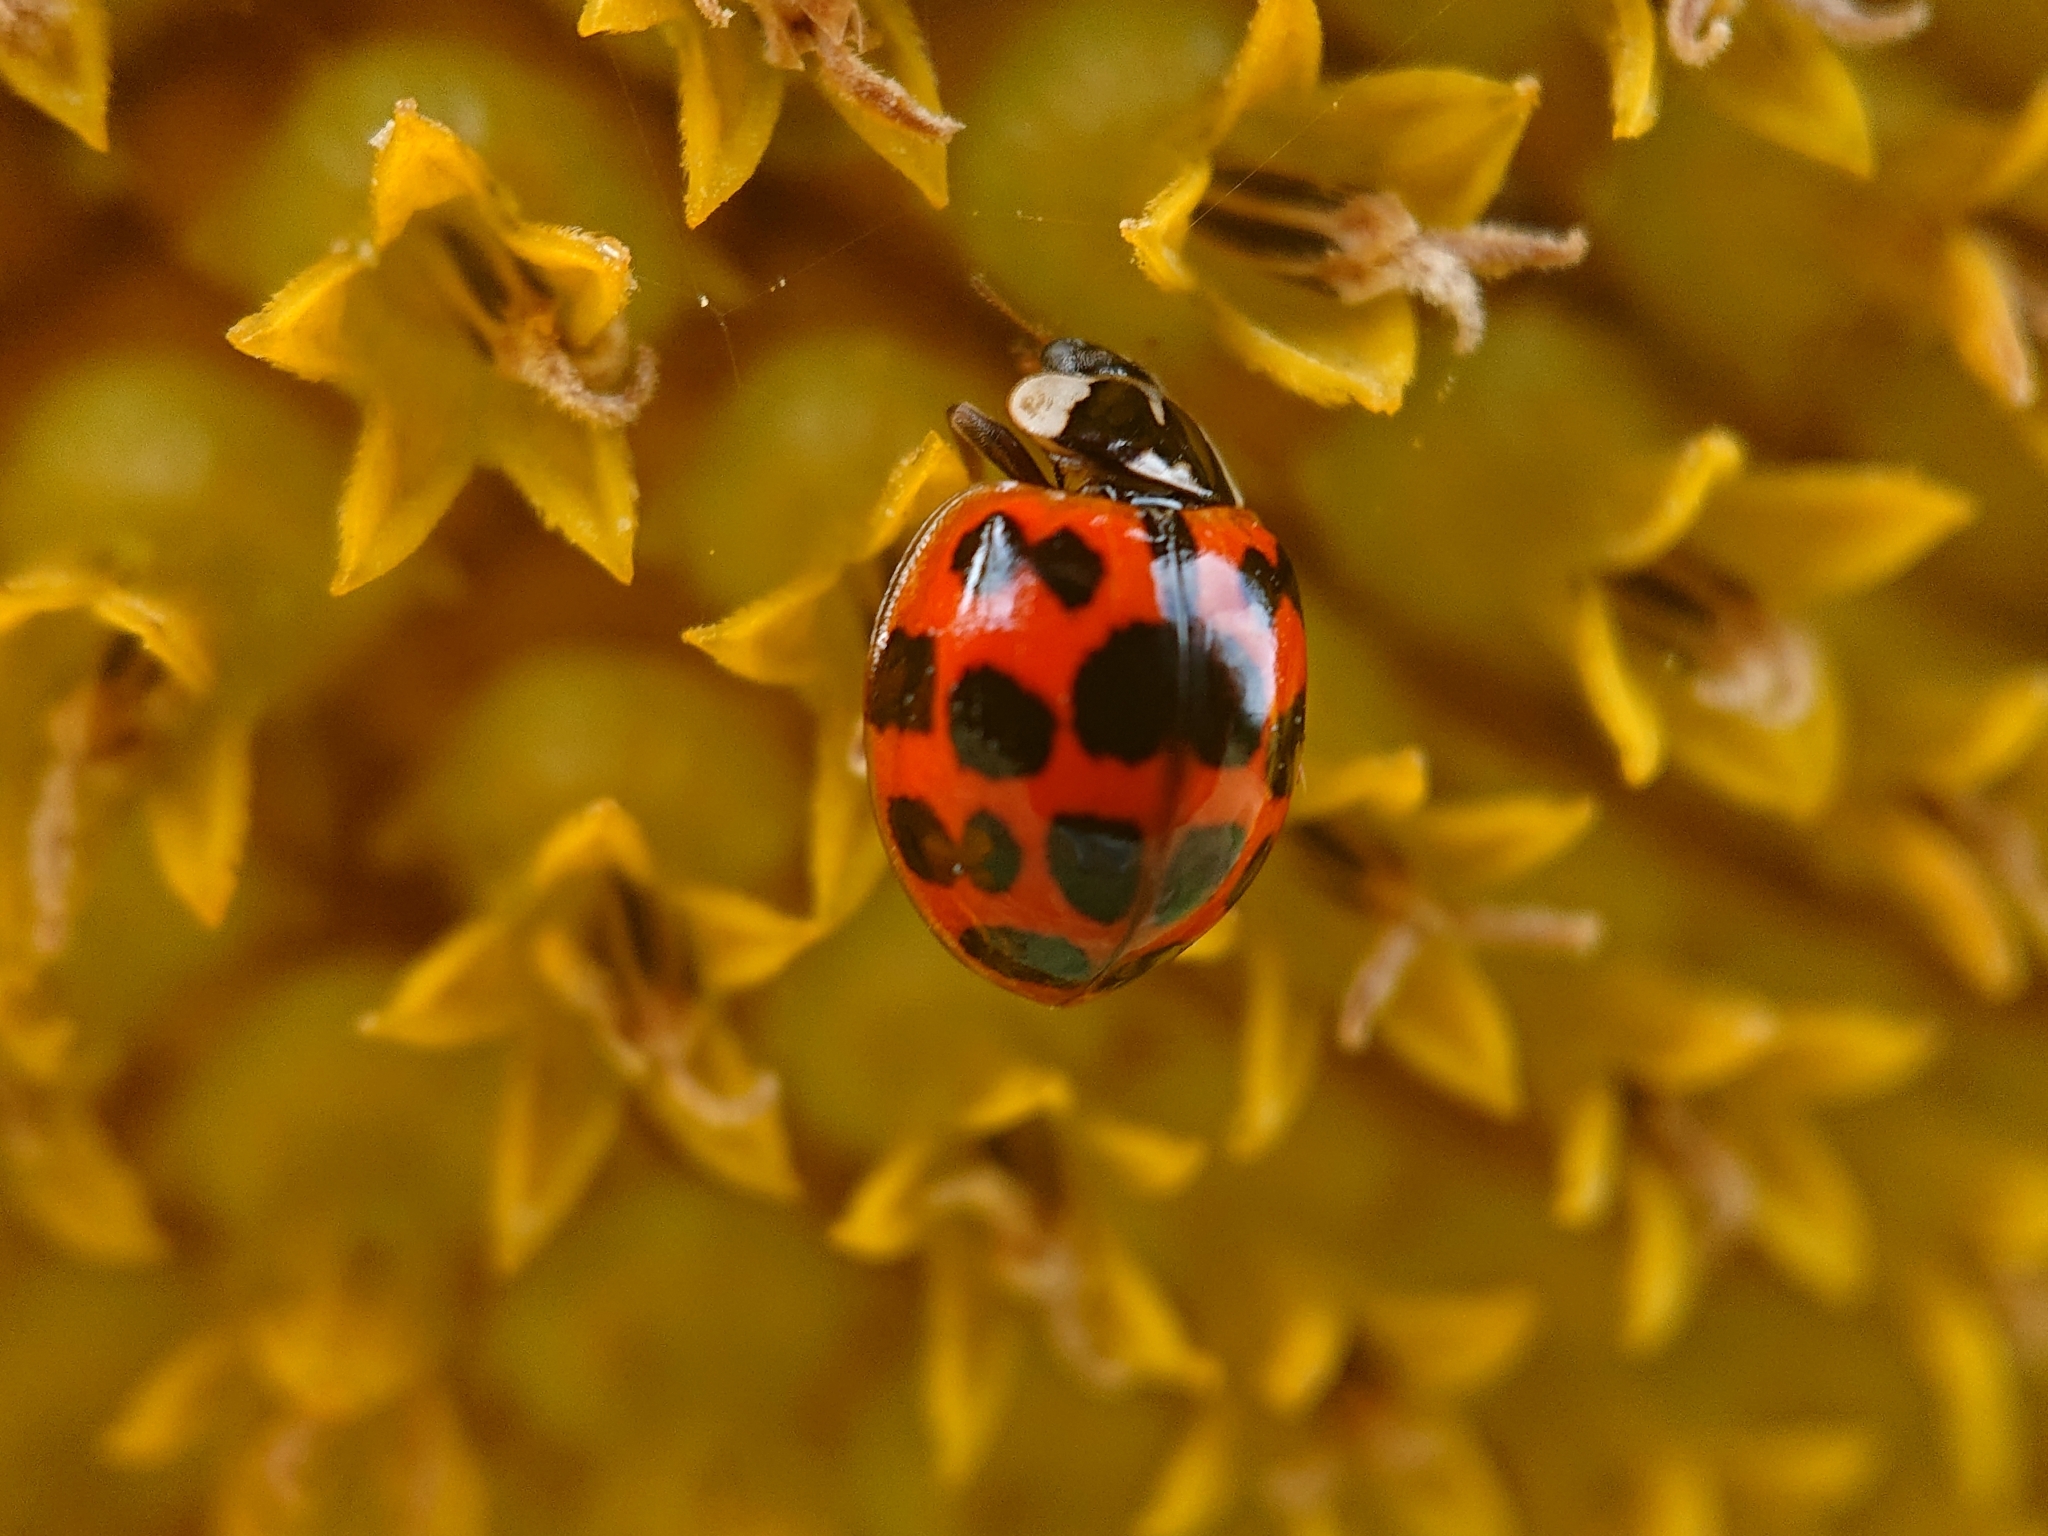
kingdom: Animalia
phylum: Arthropoda
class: Insecta
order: Coleoptera
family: Coccinellidae
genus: Harmonia
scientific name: Harmonia axyridis
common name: Harlequin ladybird
